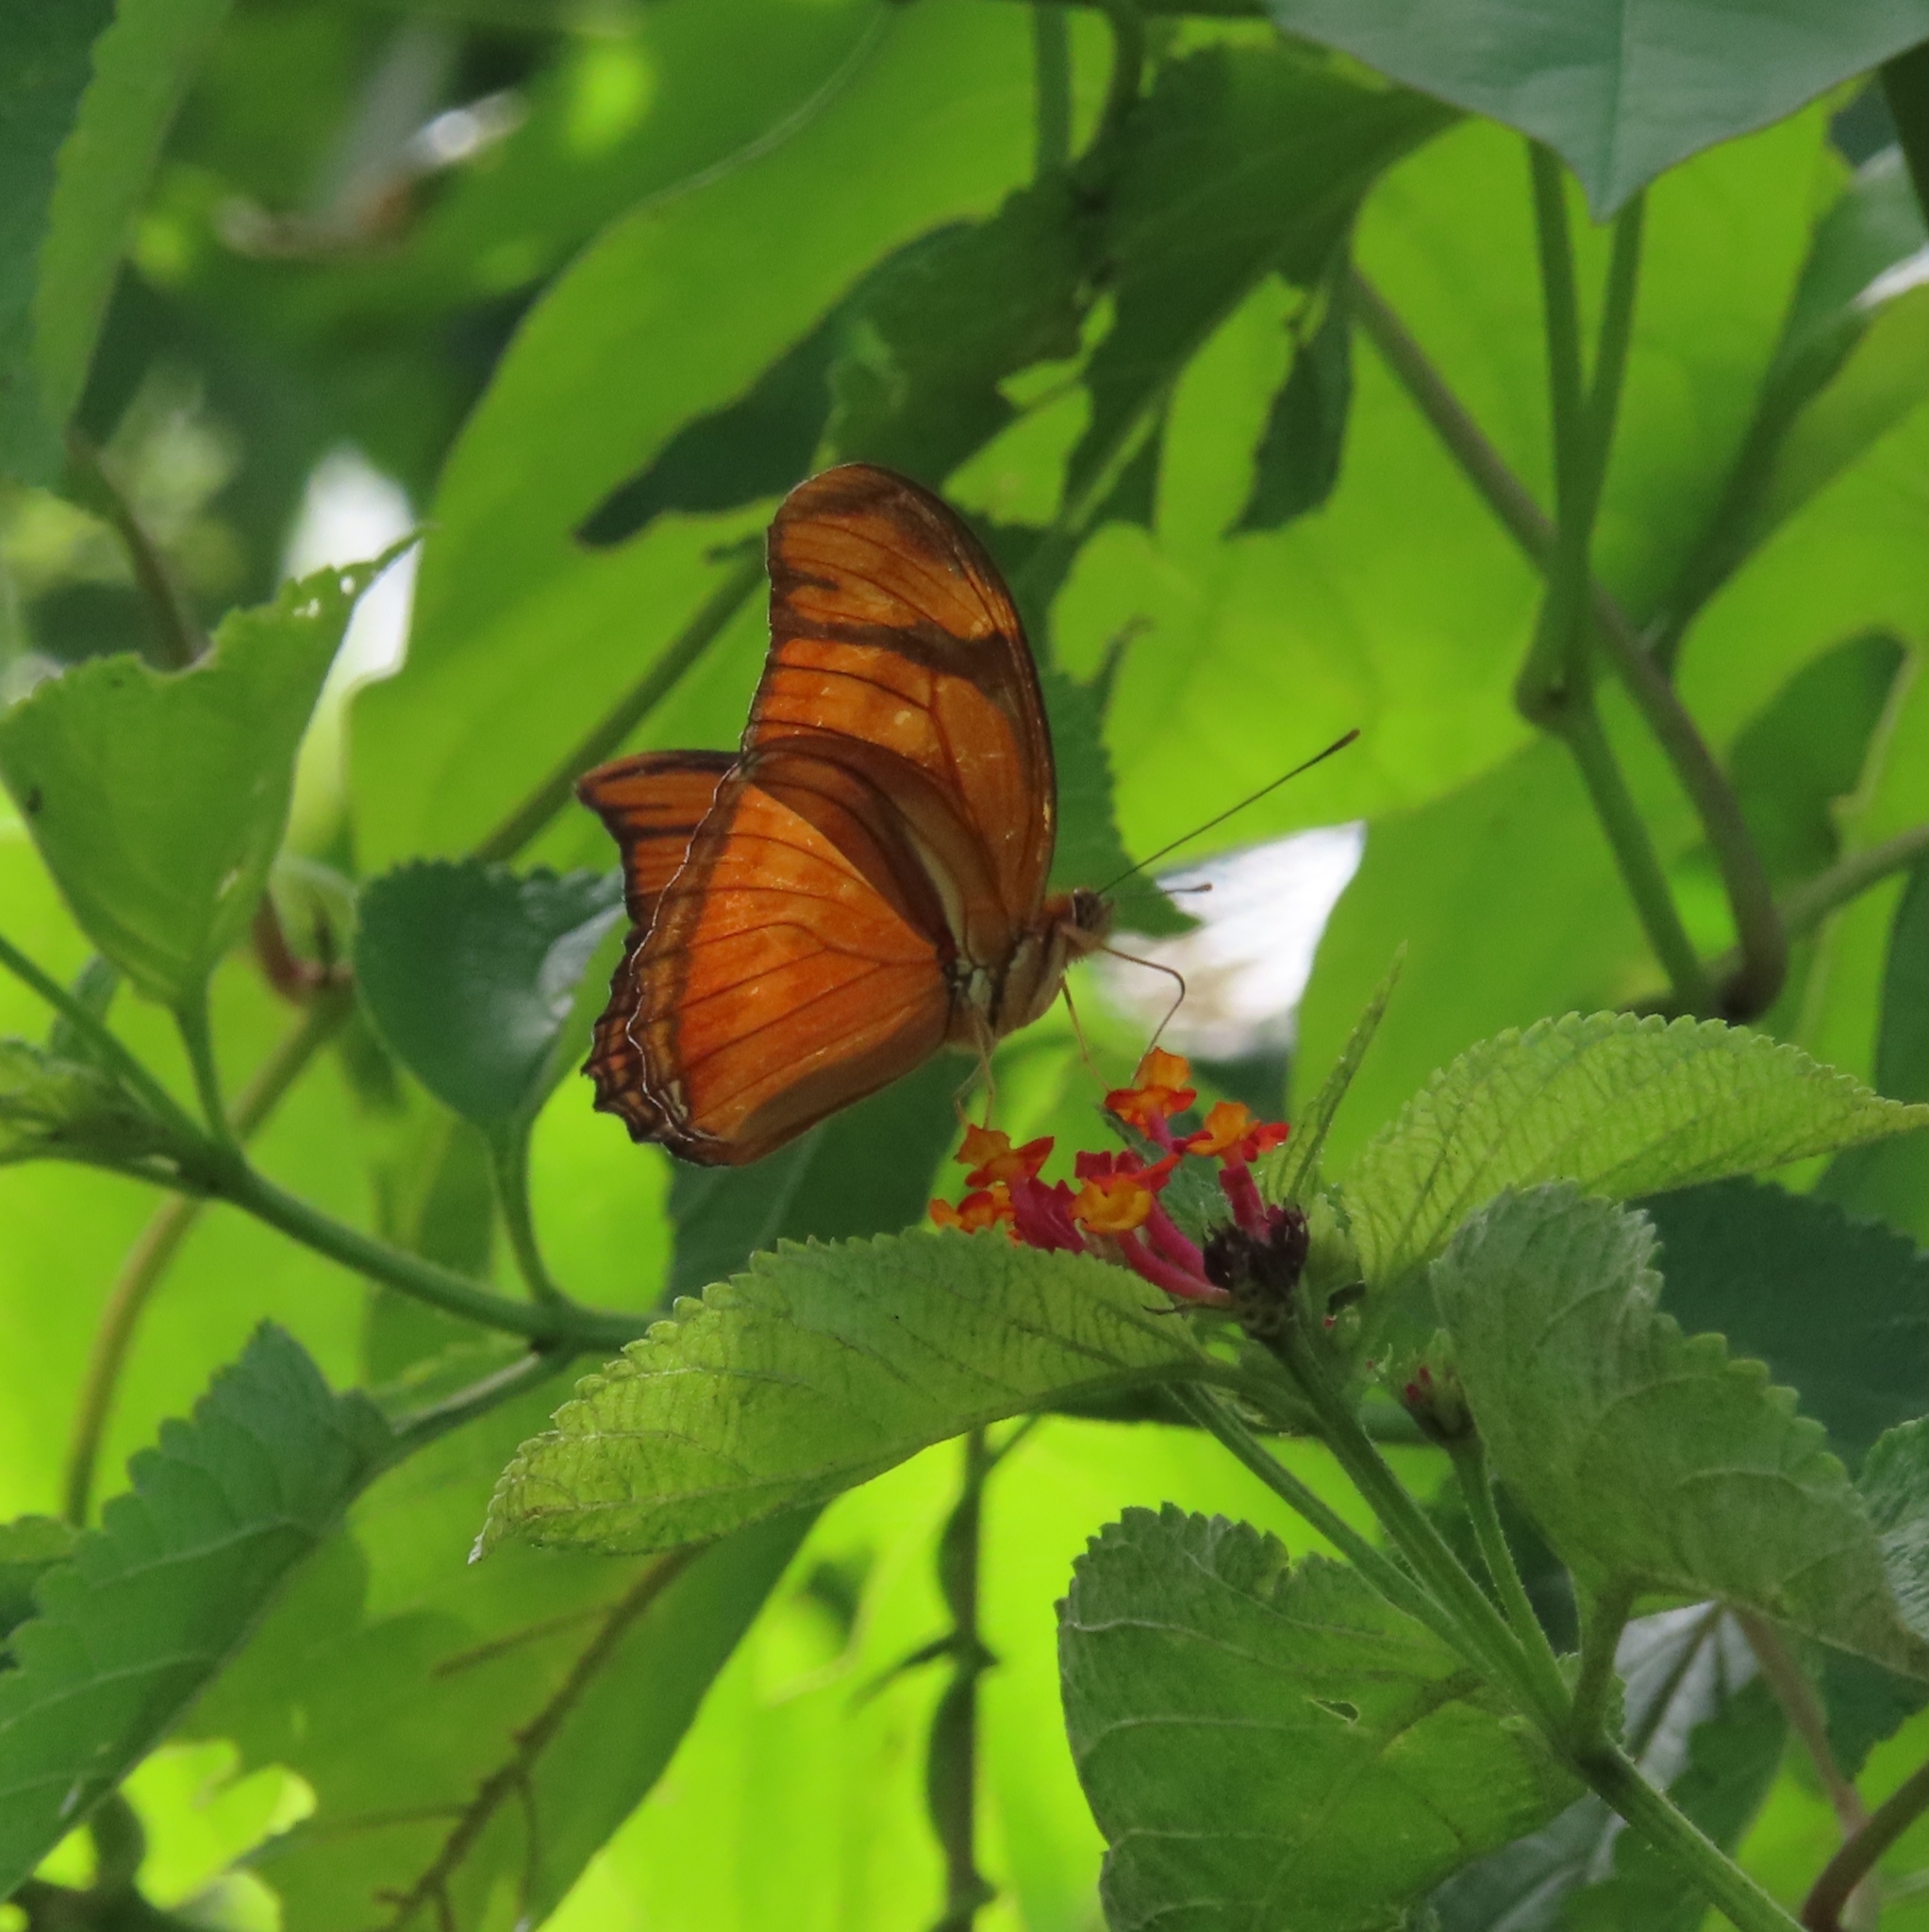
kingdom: Animalia
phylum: Arthropoda
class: Insecta
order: Lepidoptera
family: Nymphalidae
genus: Dryas
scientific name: Dryas iulia
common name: Flambeau
